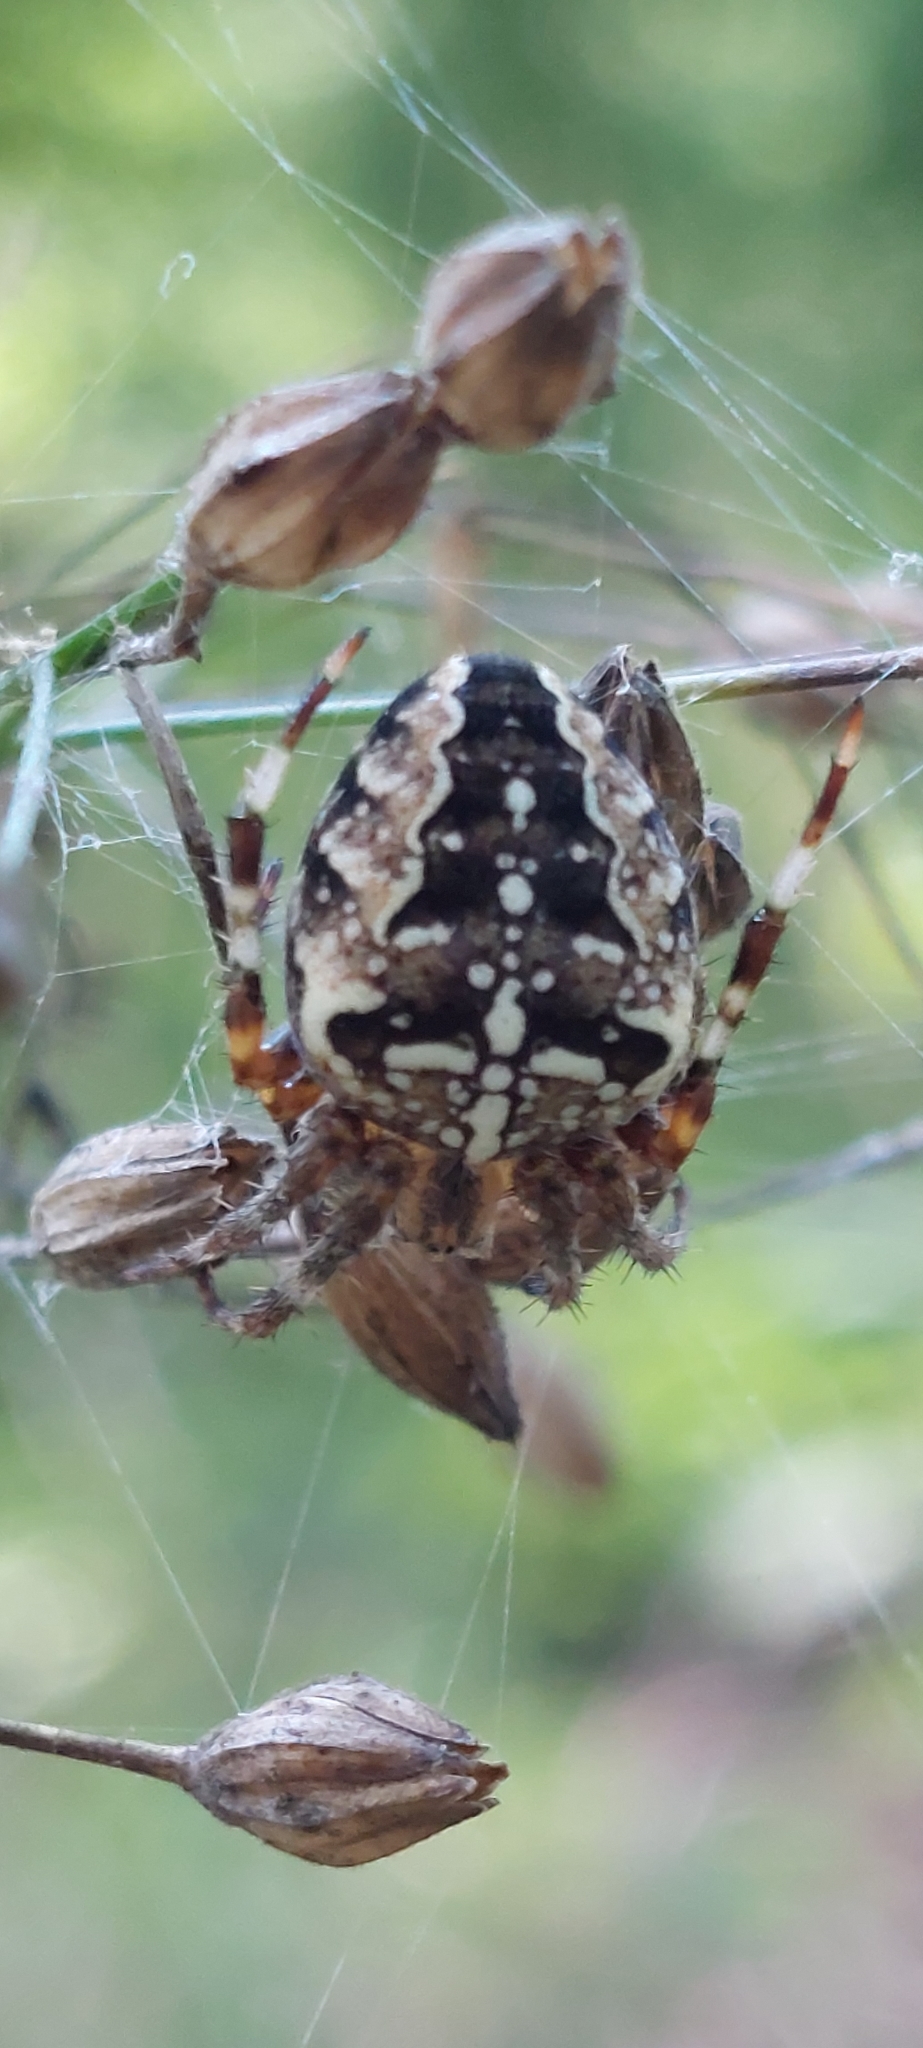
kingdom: Animalia
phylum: Arthropoda
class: Arachnida
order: Araneae
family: Araneidae
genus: Araneus
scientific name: Araneus diadematus
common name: Cross orbweaver
